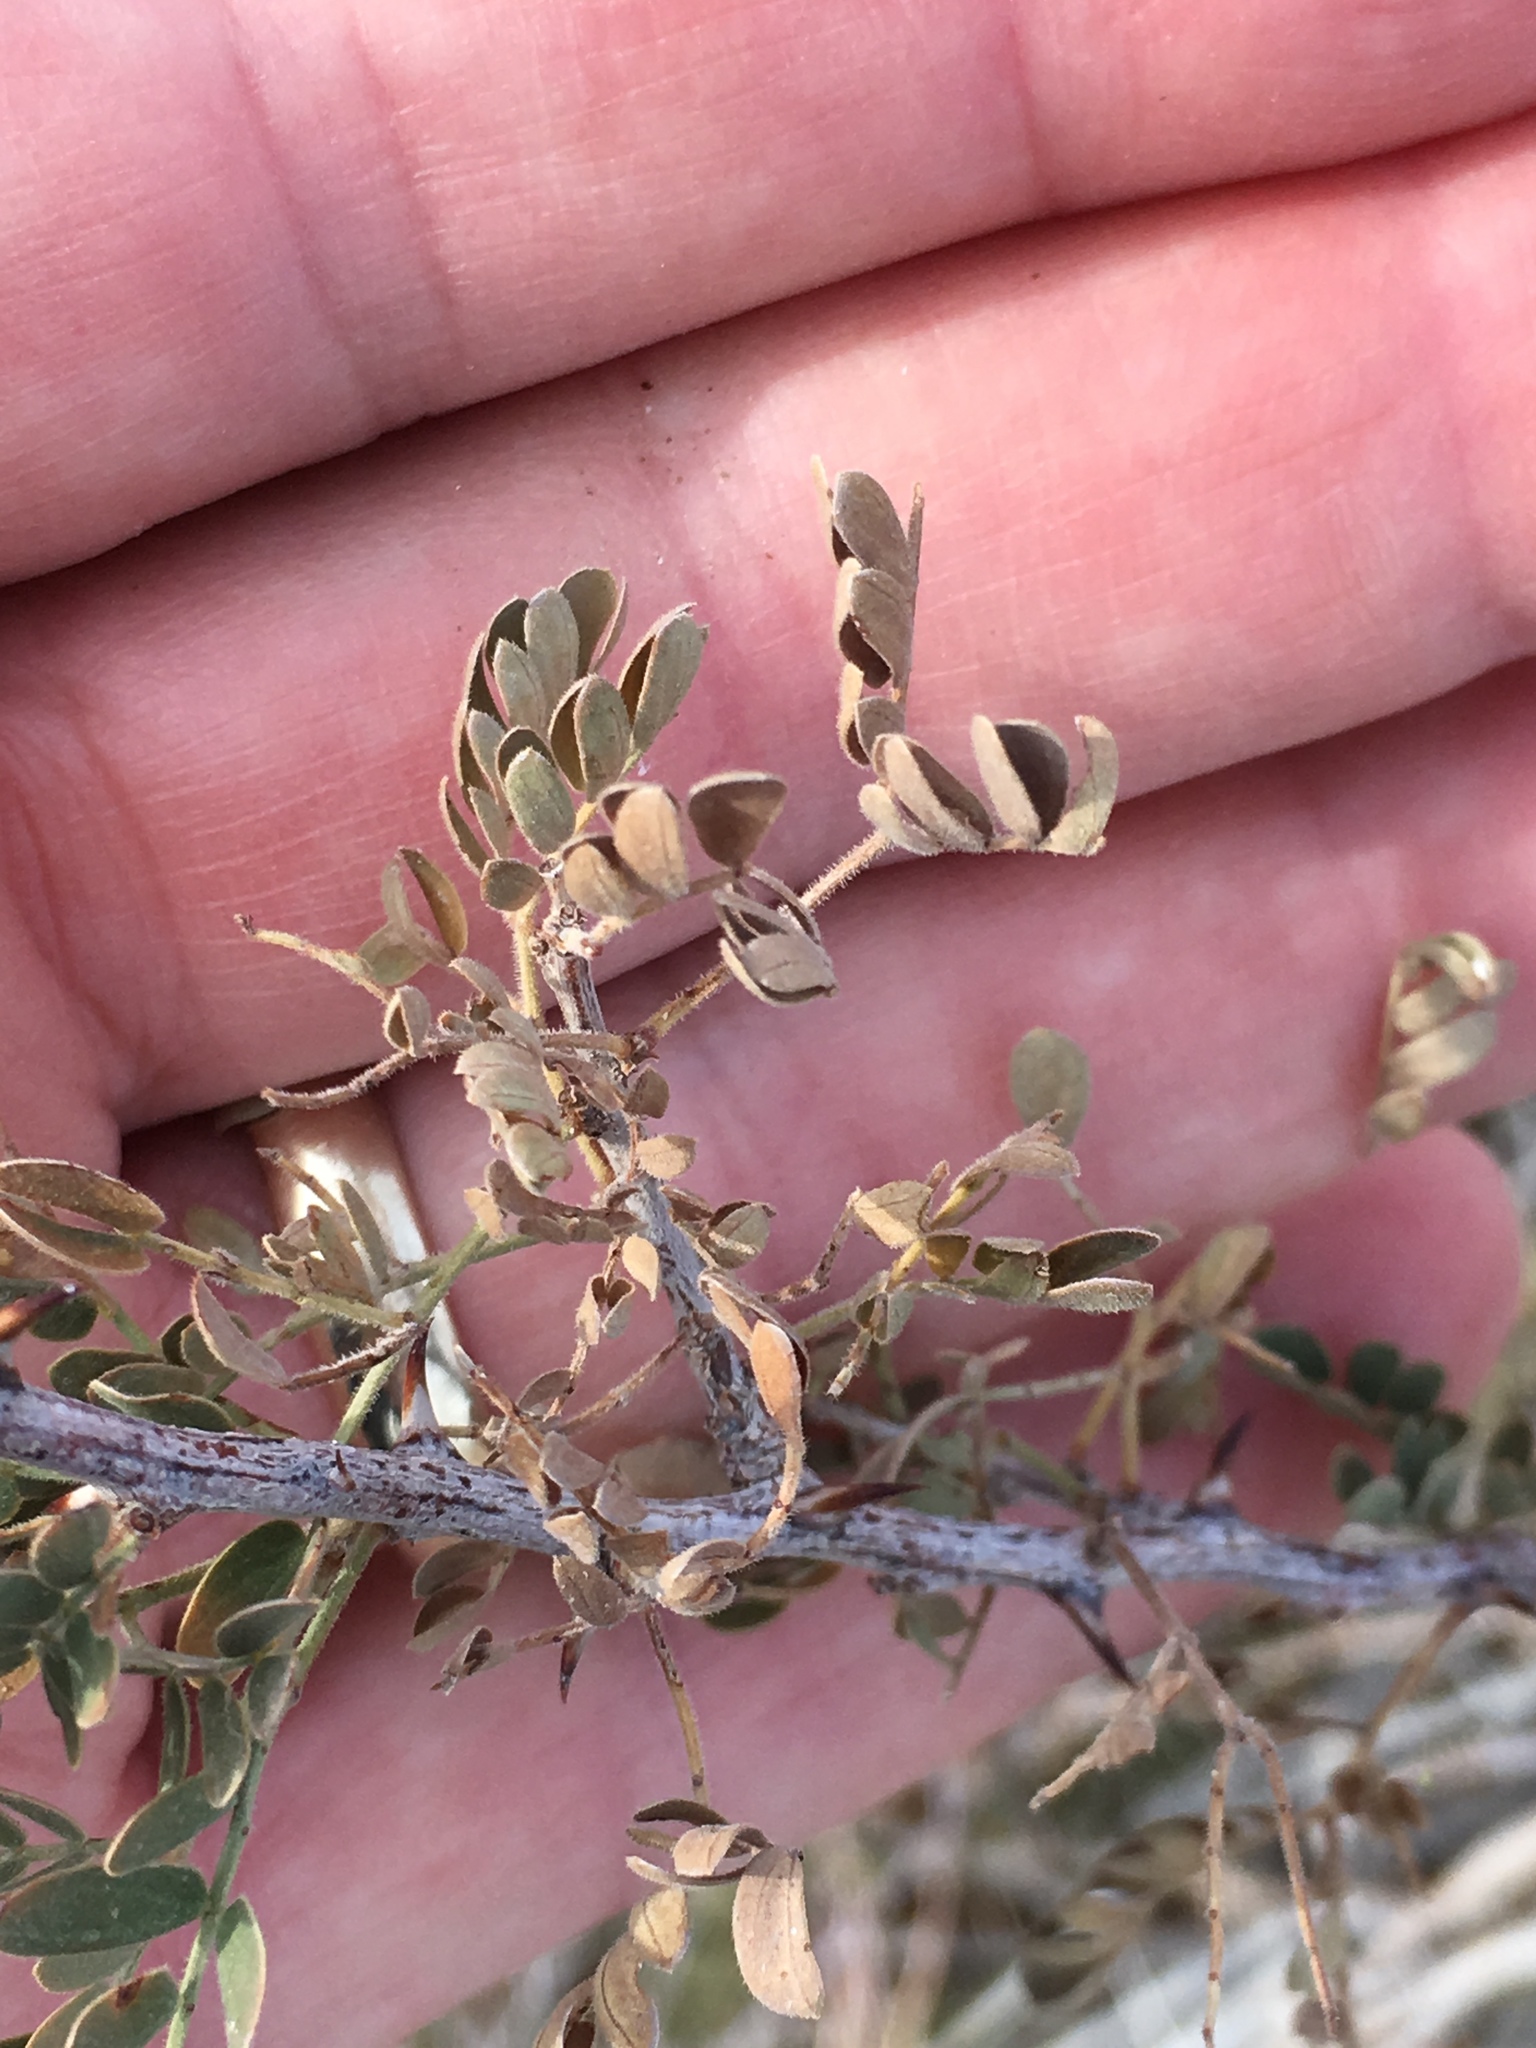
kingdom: Plantae
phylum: Tracheophyta
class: Magnoliopsida
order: Fabales
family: Fabaceae
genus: Senegalia
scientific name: Senegalia greggii
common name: Texas-mimosa
